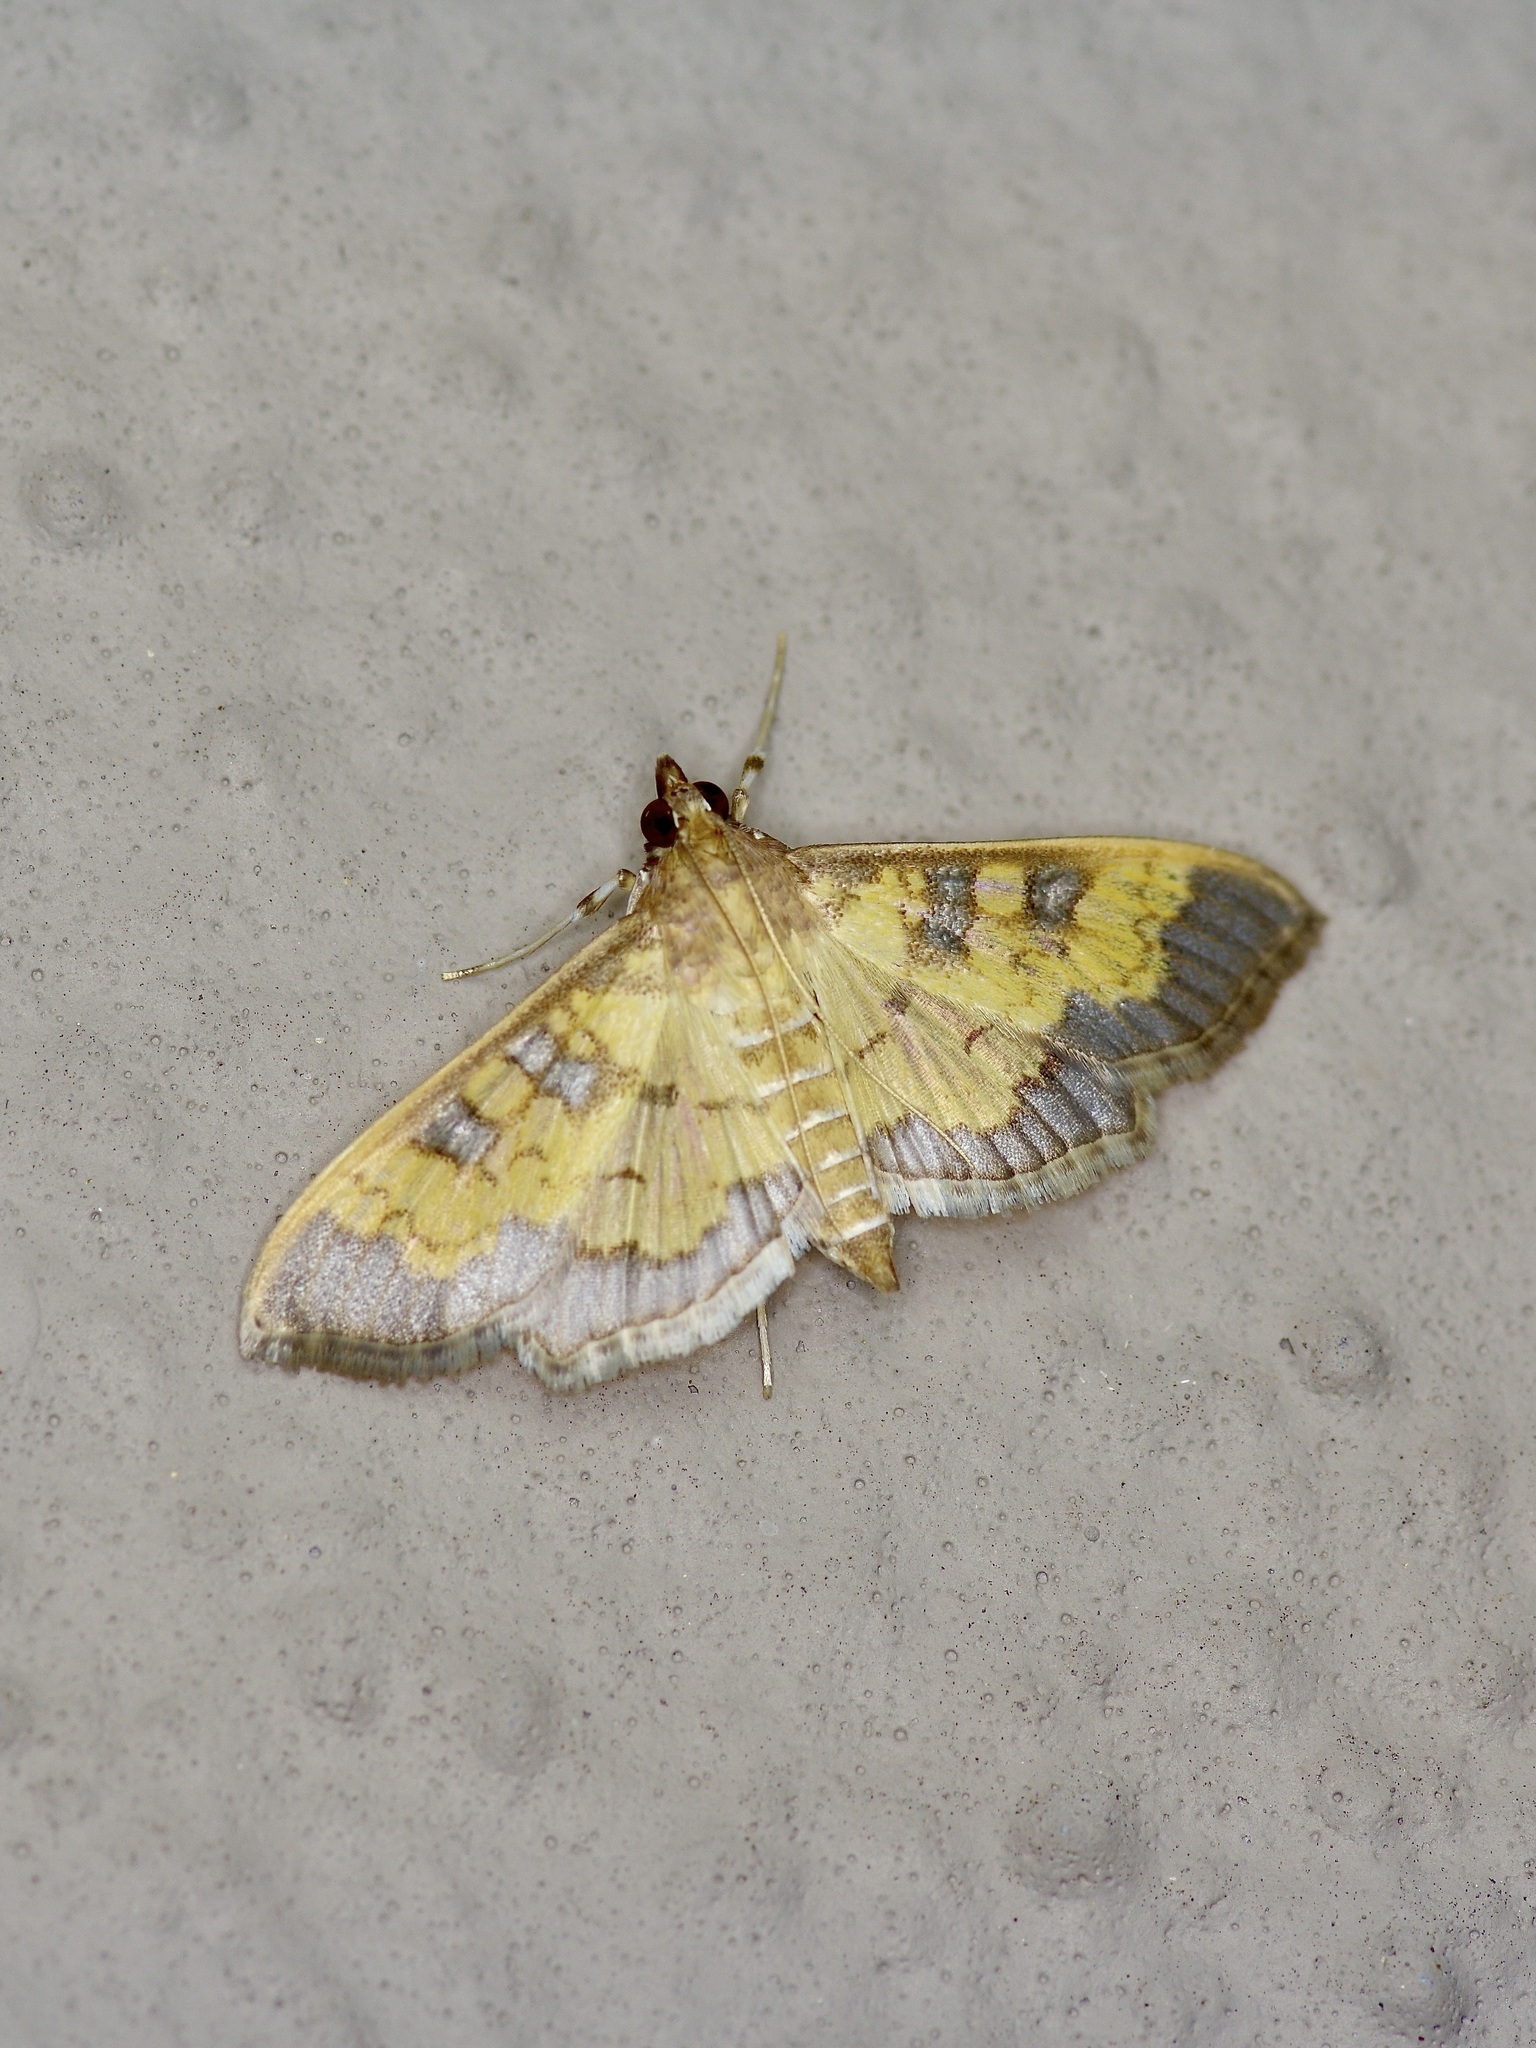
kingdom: Animalia
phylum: Arthropoda
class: Insecta
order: Lepidoptera
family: Crambidae
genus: Cryptographis
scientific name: Cryptographis elealis
